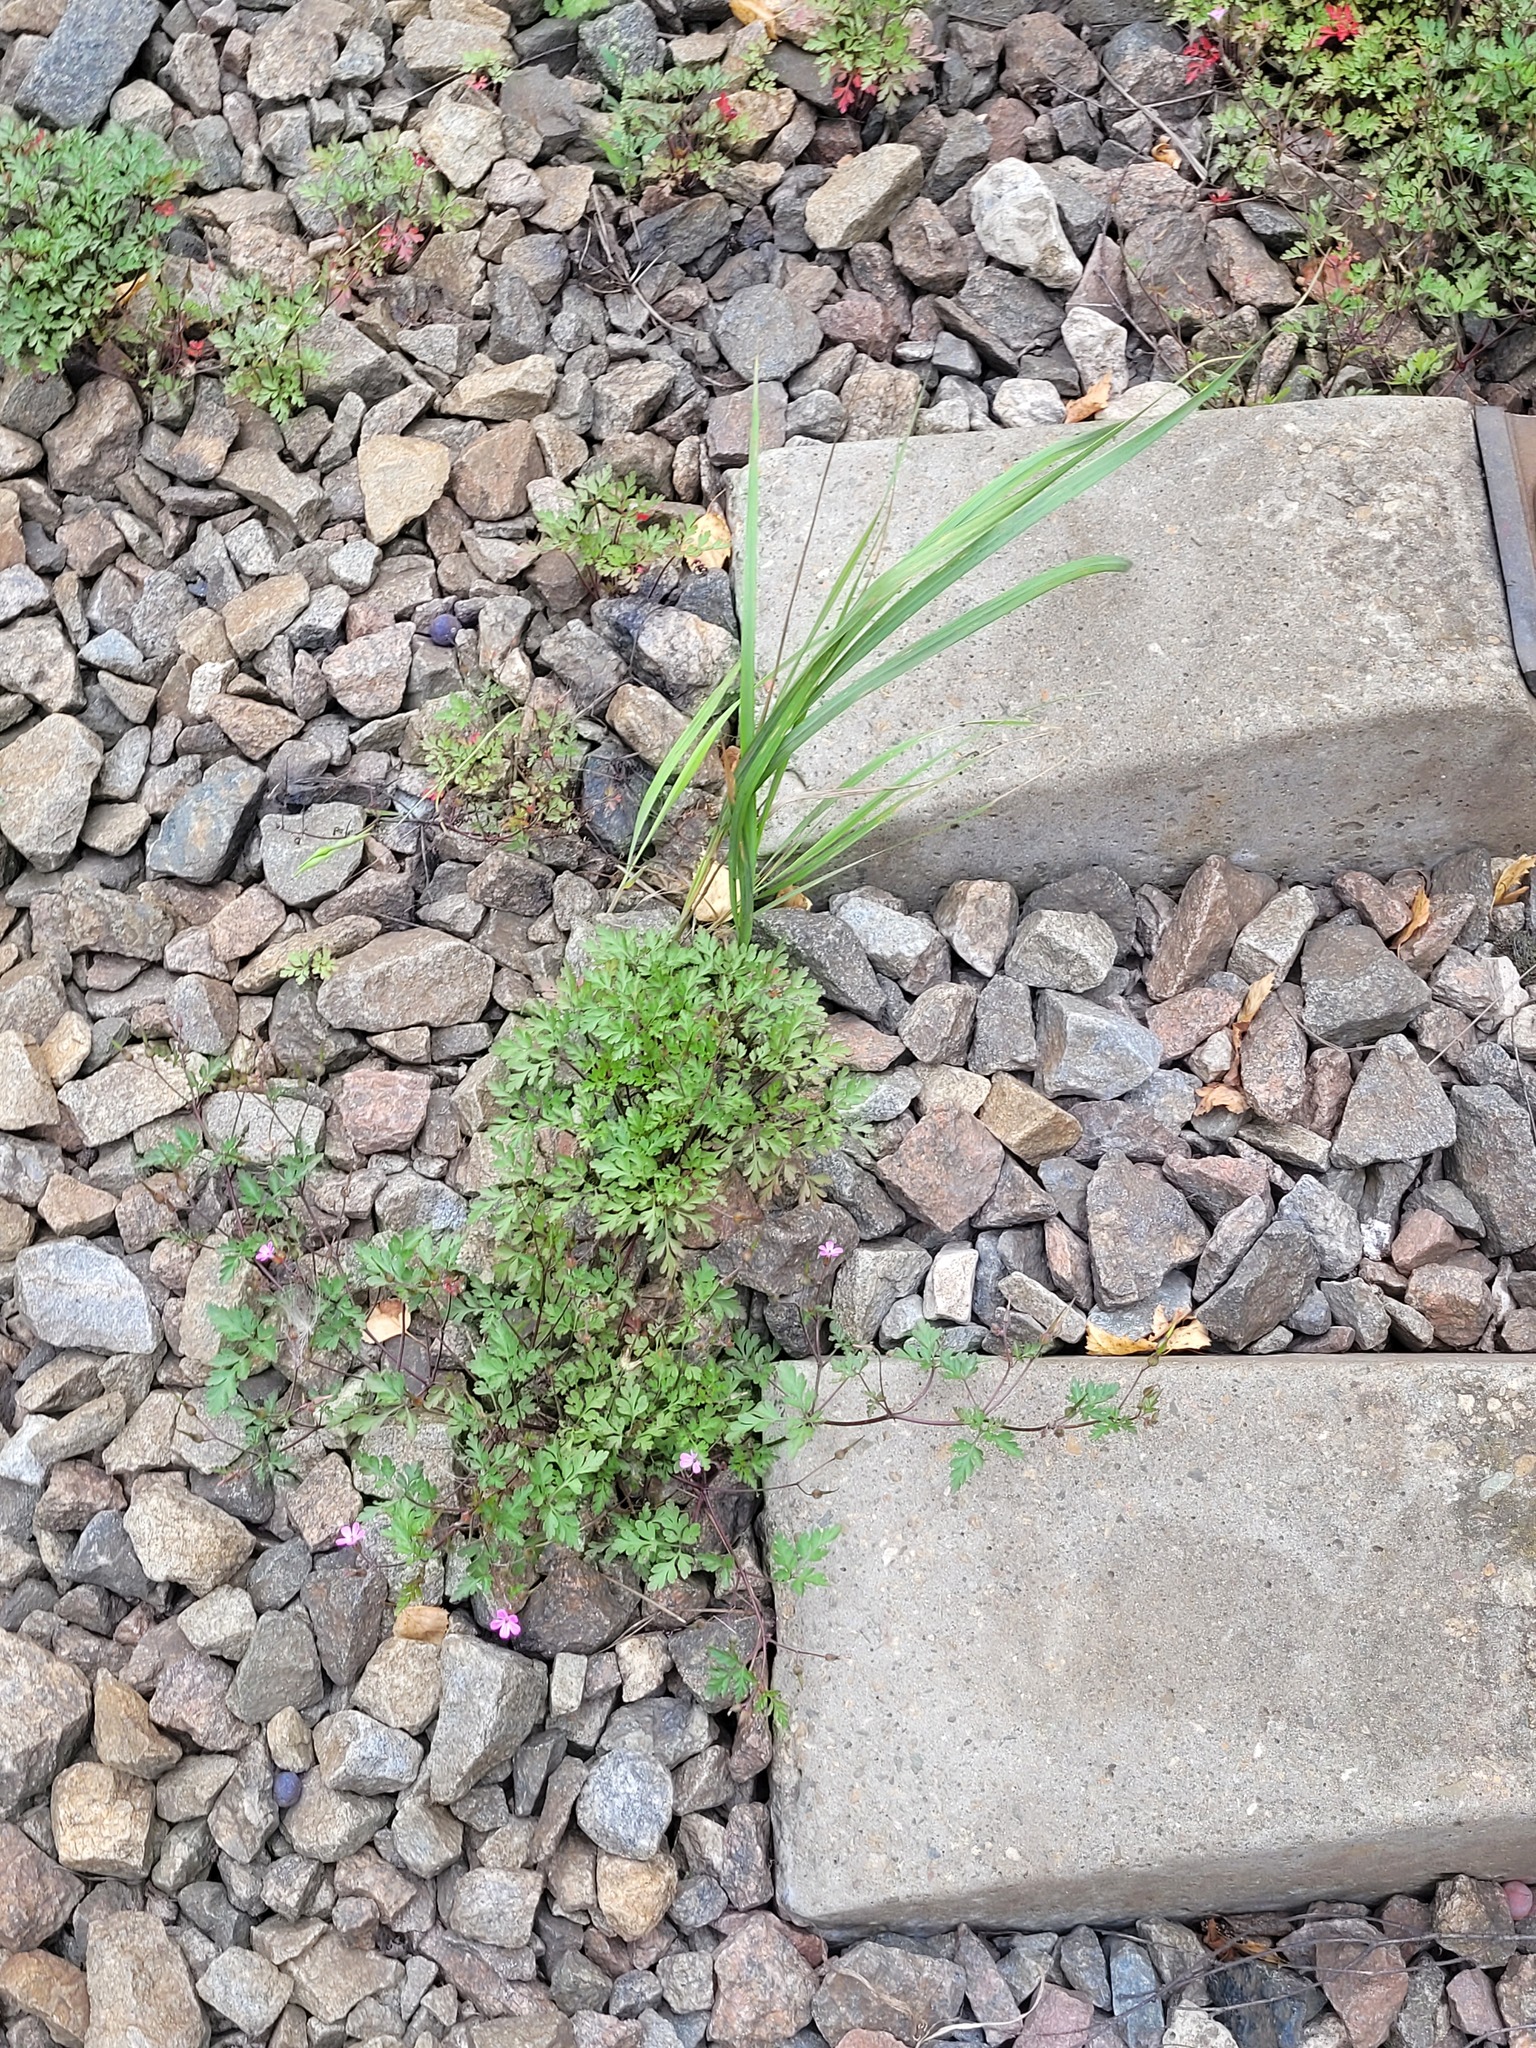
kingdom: Plantae
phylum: Tracheophyta
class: Magnoliopsida
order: Geraniales
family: Geraniaceae
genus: Geranium
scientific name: Geranium robertianum
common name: Herb-robert
